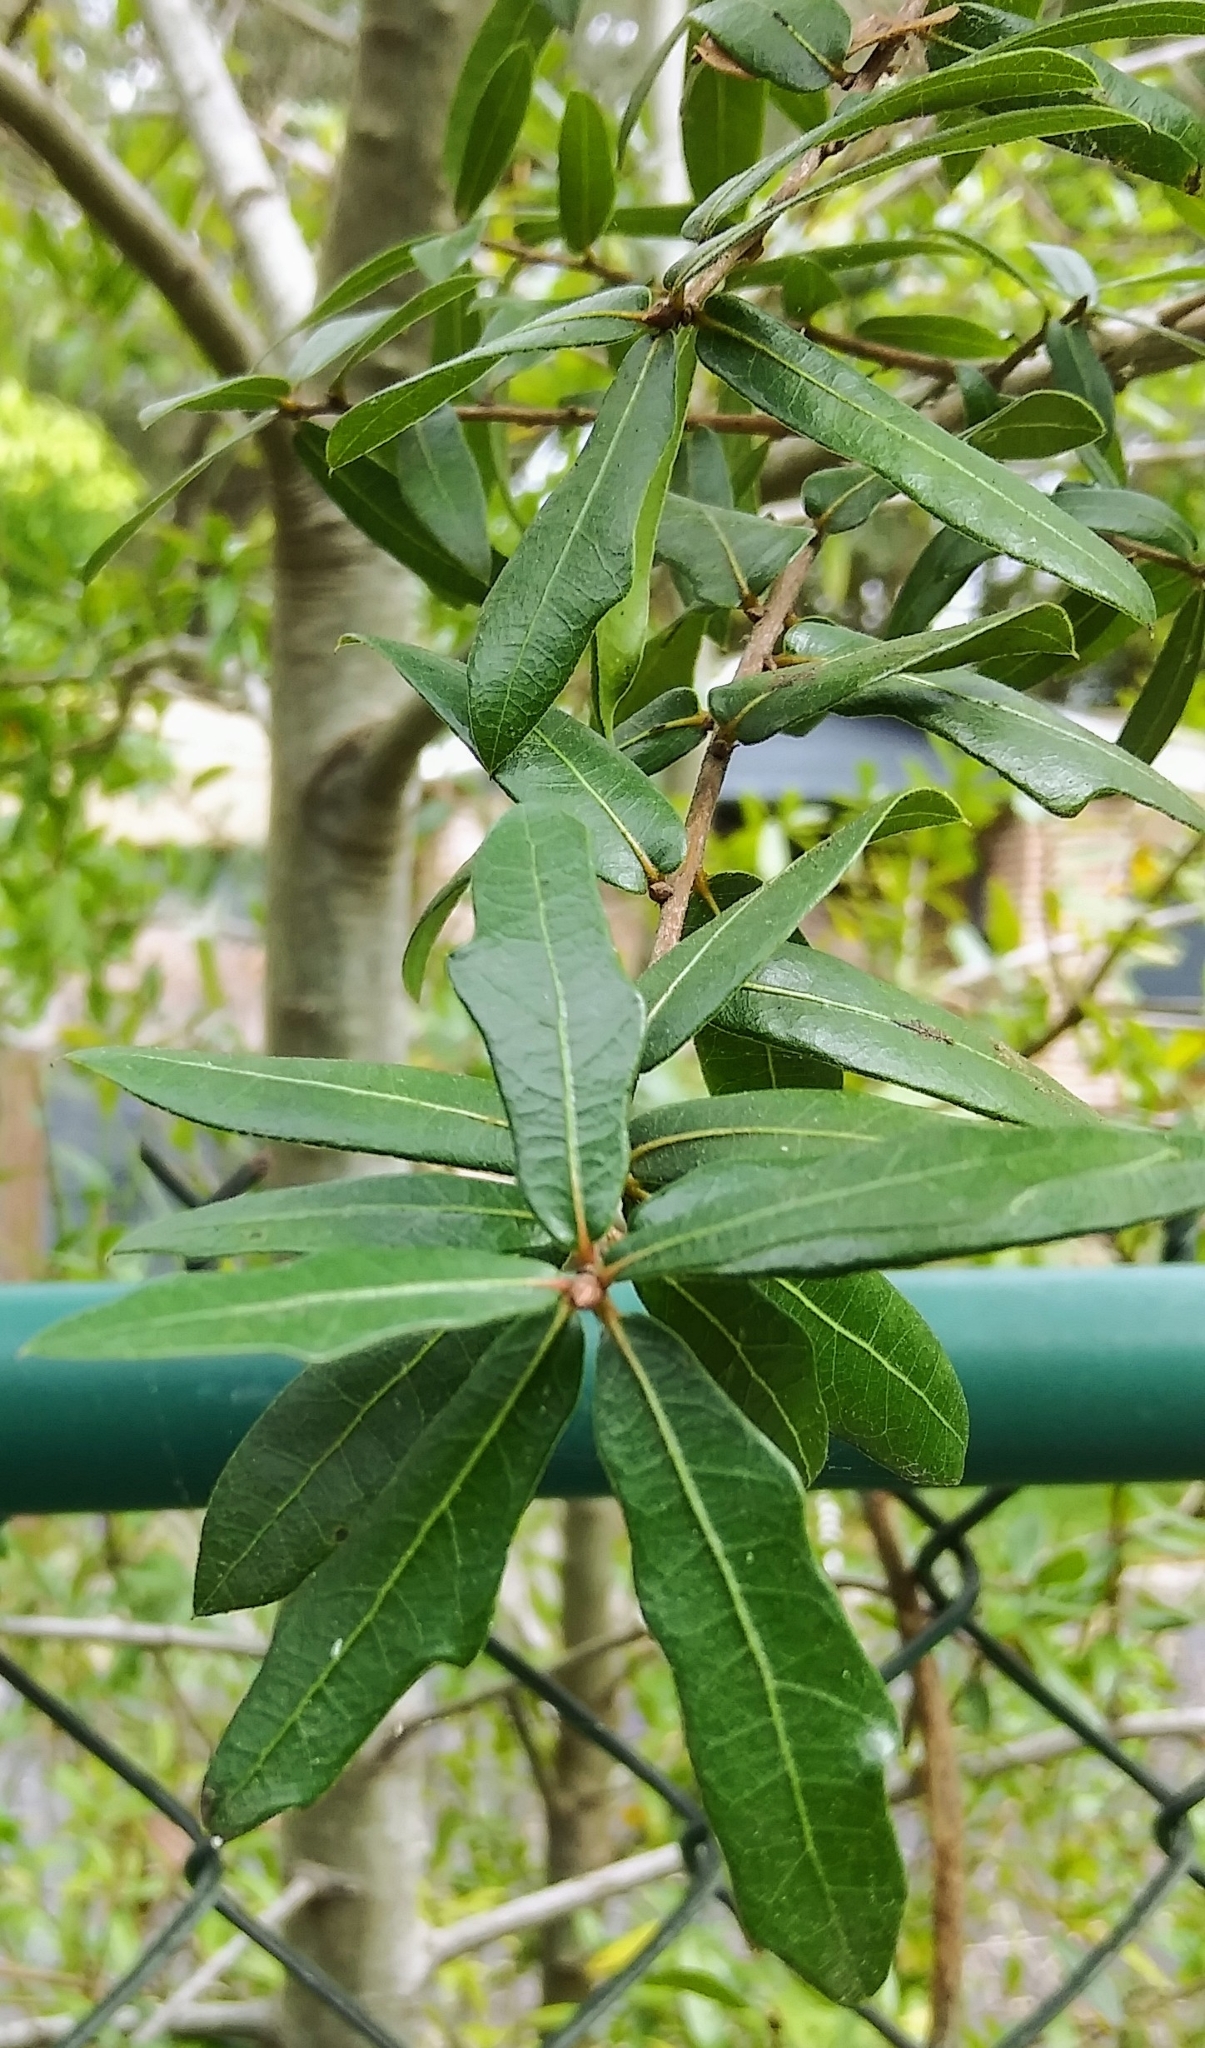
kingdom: Plantae
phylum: Tracheophyta
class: Magnoliopsida
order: Fagales
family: Fagaceae
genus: Quercus
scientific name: Quercus hemisphaerica
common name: Darlington oak
